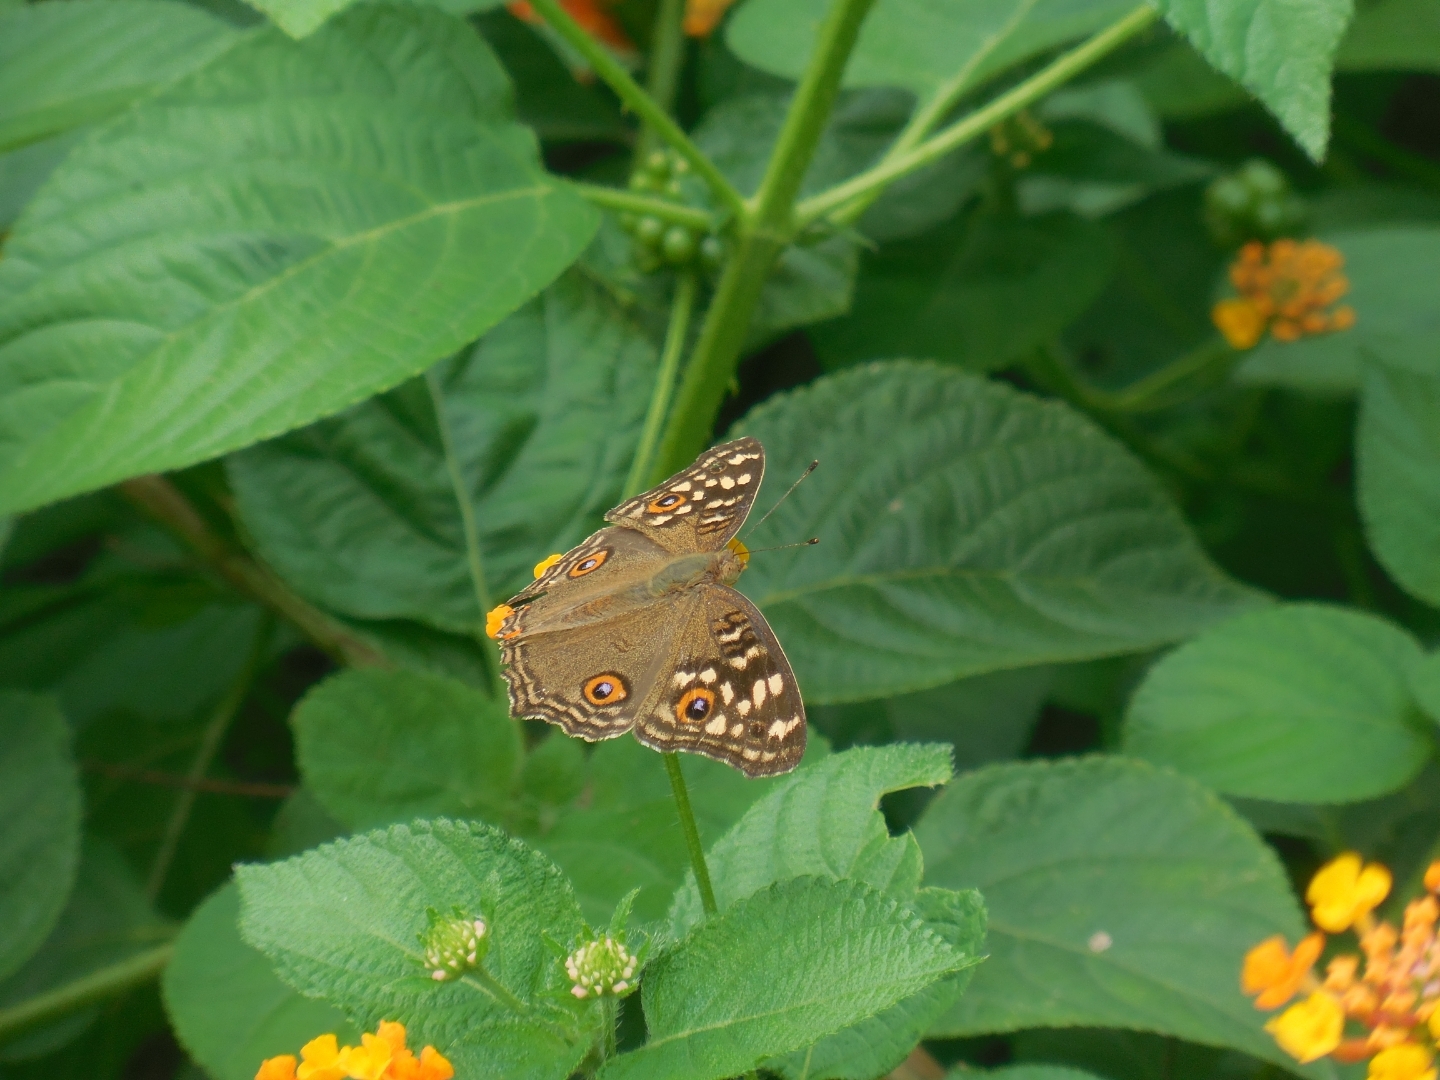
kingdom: Animalia
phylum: Arthropoda
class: Insecta
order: Lepidoptera
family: Nymphalidae
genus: Junonia
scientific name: Junonia lemonias
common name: Lemon pansy
